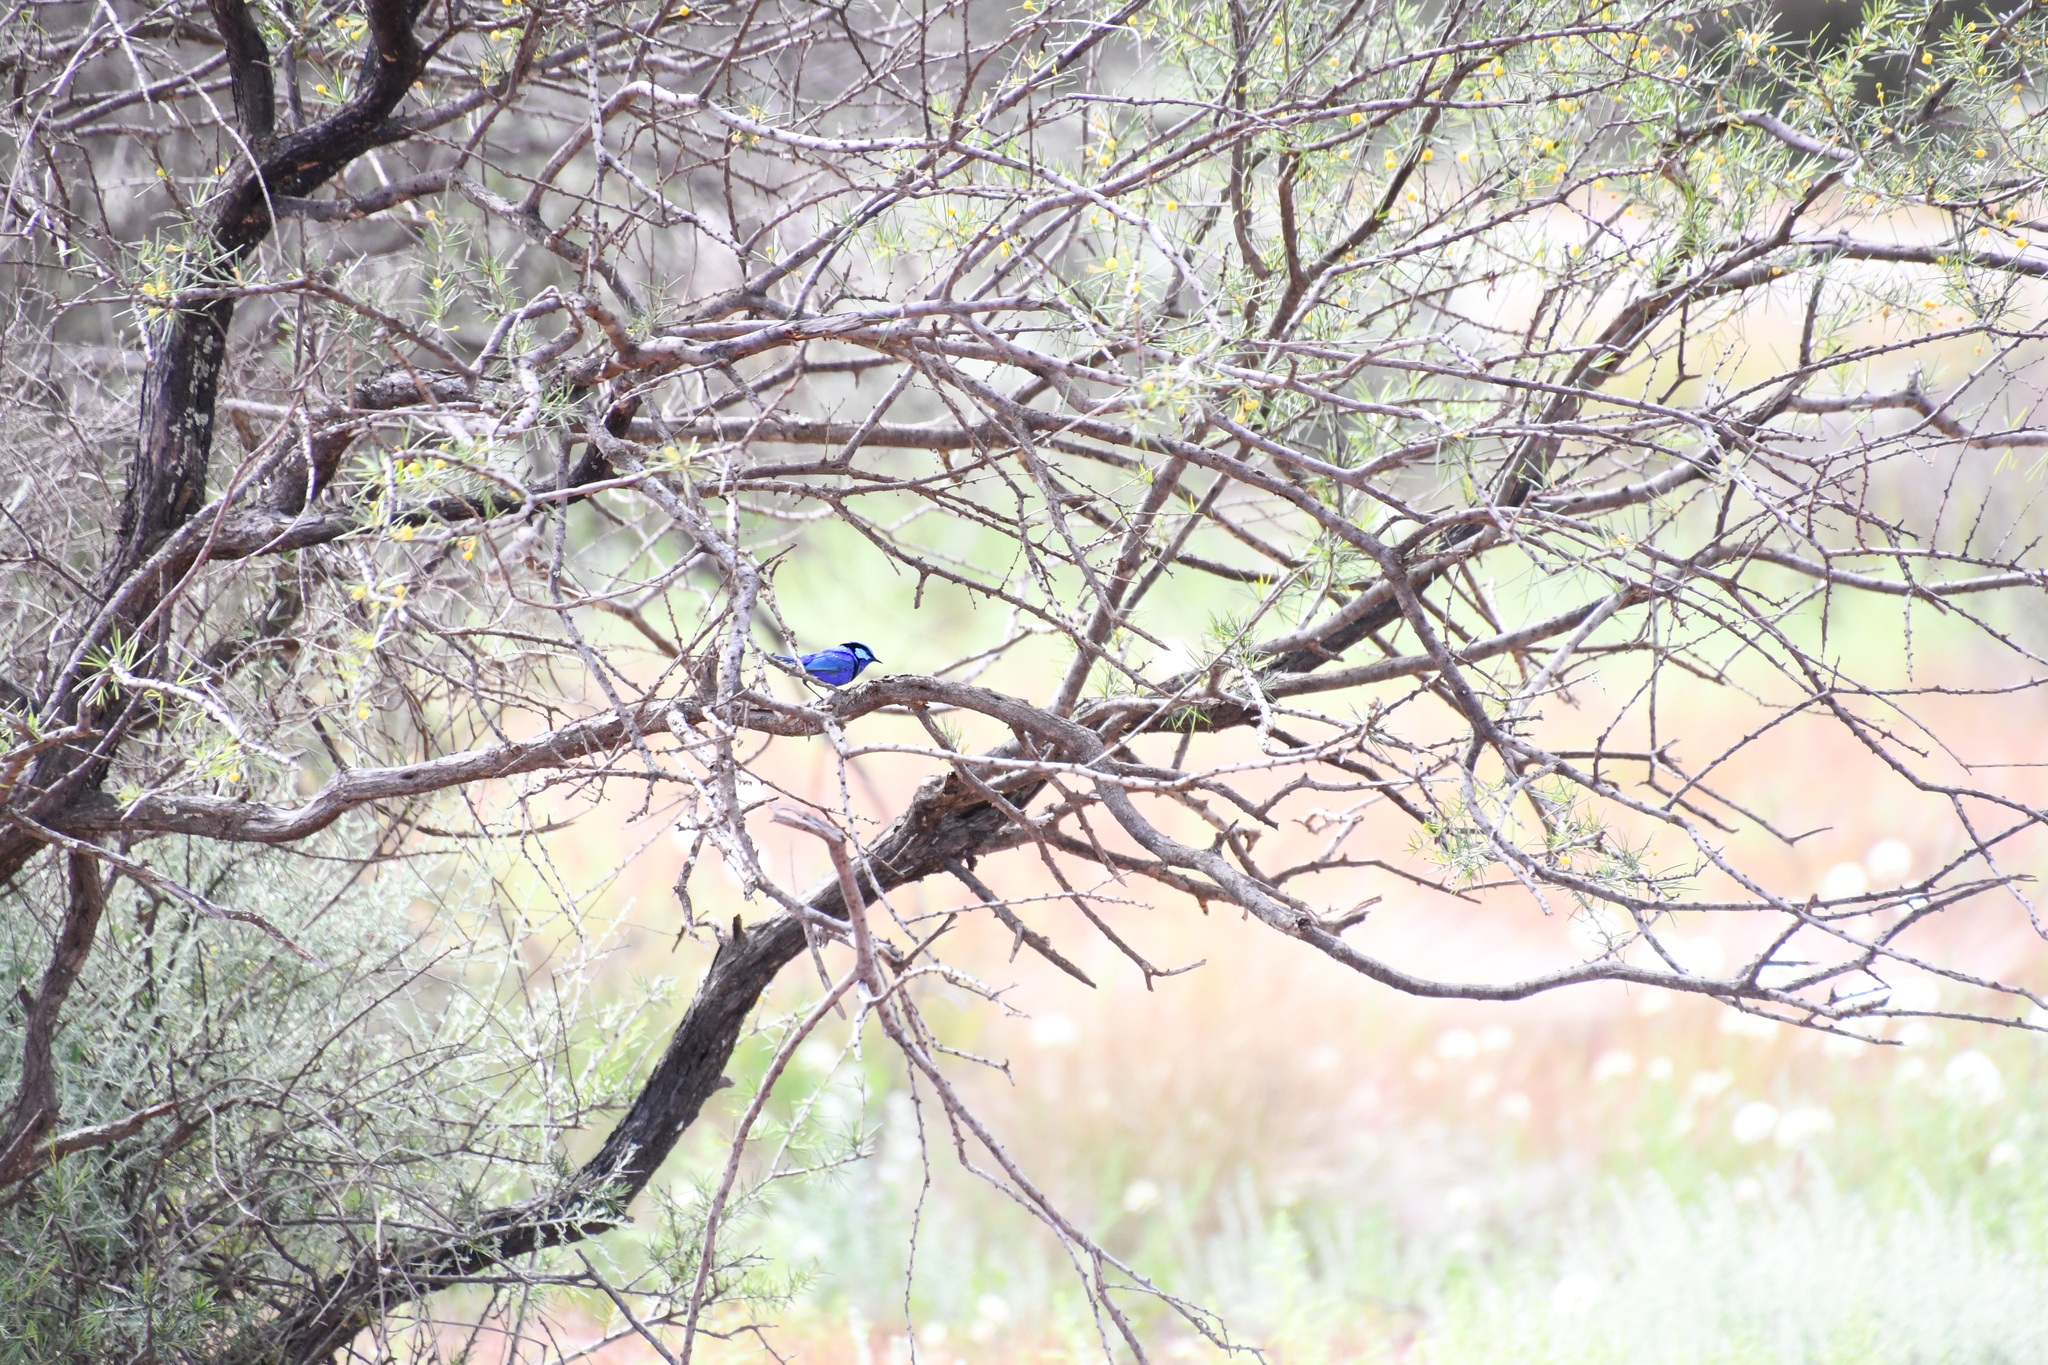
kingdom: Animalia
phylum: Chordata
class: Aves
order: Passeriformes
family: Maluridae
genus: Malurus
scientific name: Malurus splendens
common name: Splendid fairywren
